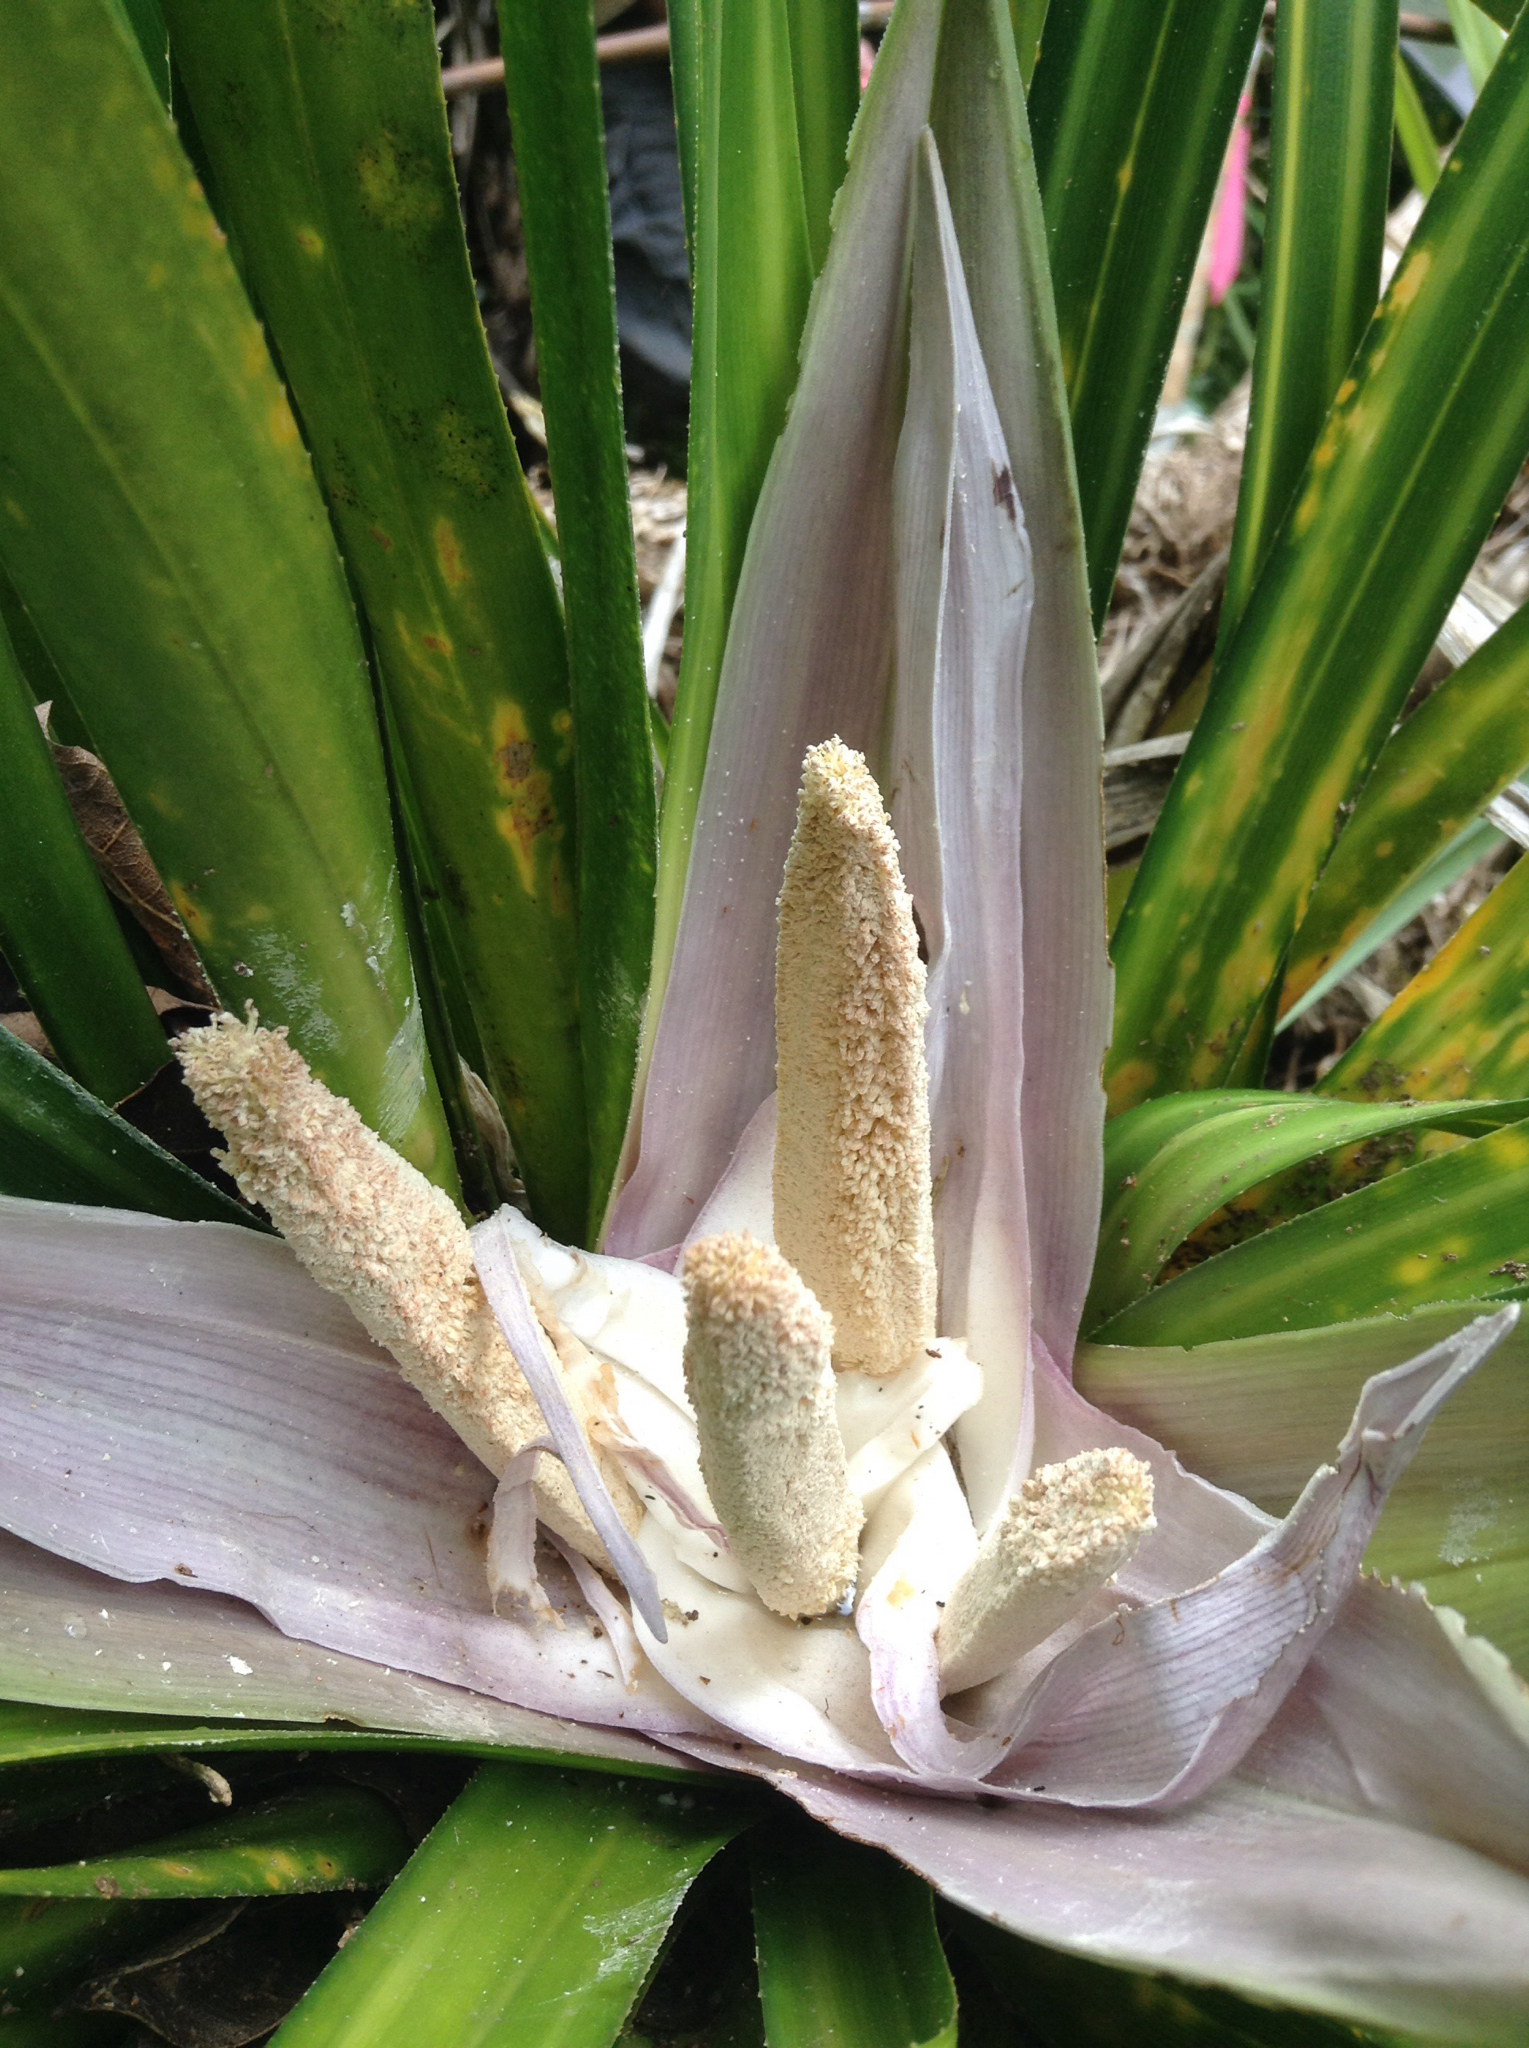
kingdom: Plantae
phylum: Tracheophyta
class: Liliopsida
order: Pandanales
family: Pandanaceae
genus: Freycinetia
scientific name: Freycinetia banksii
